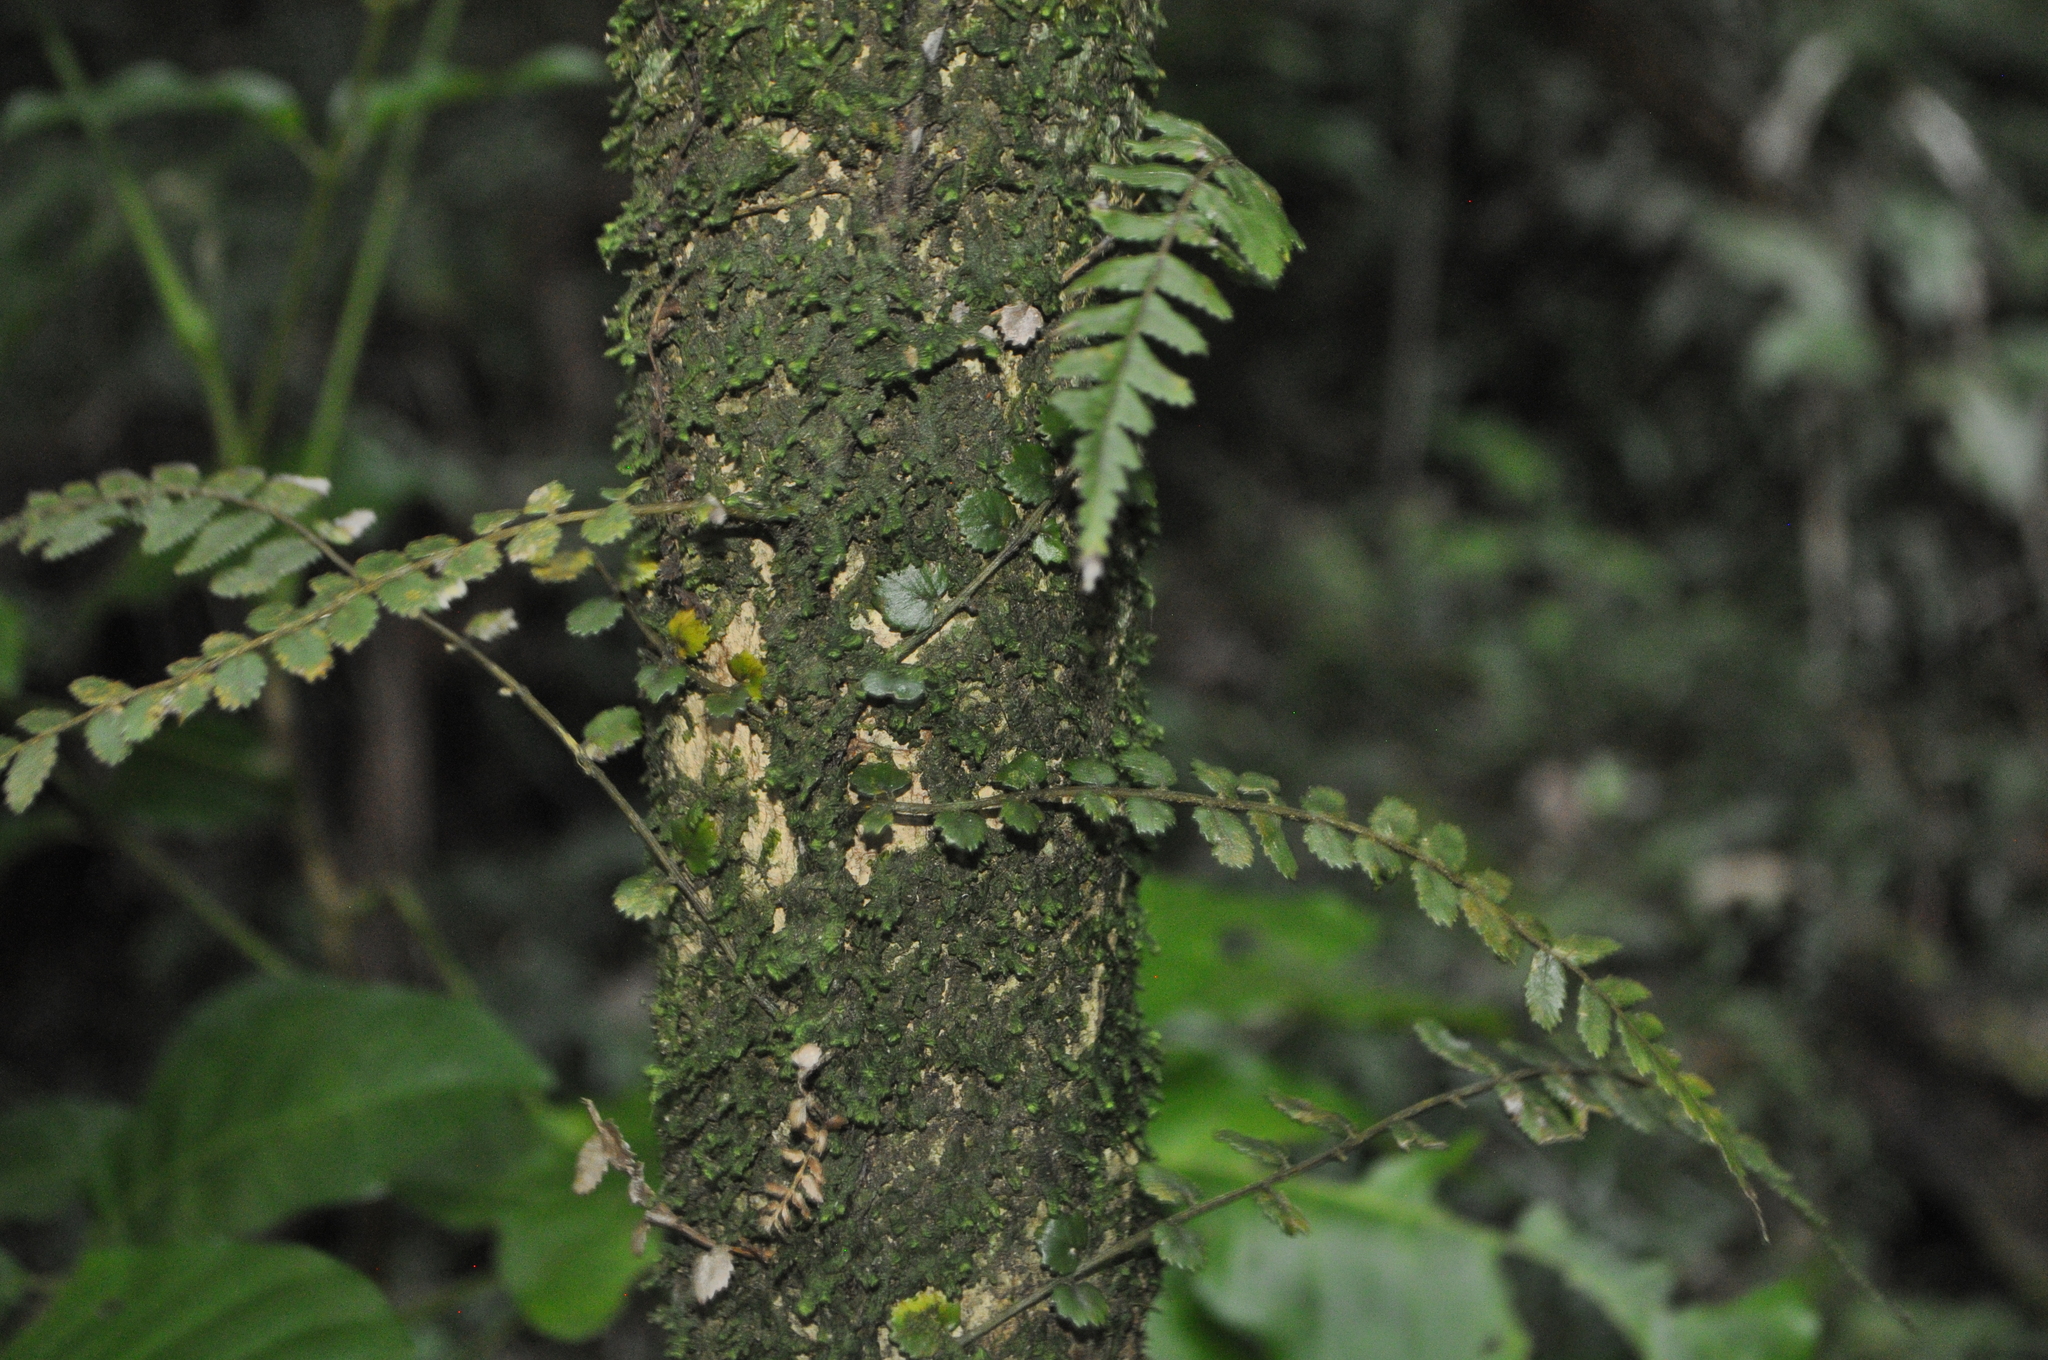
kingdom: Plantae
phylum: Tracheophyta
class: Polypodiopsida
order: Polypodiales
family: Blechnaceae
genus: Icarus
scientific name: Icarus filiformis
